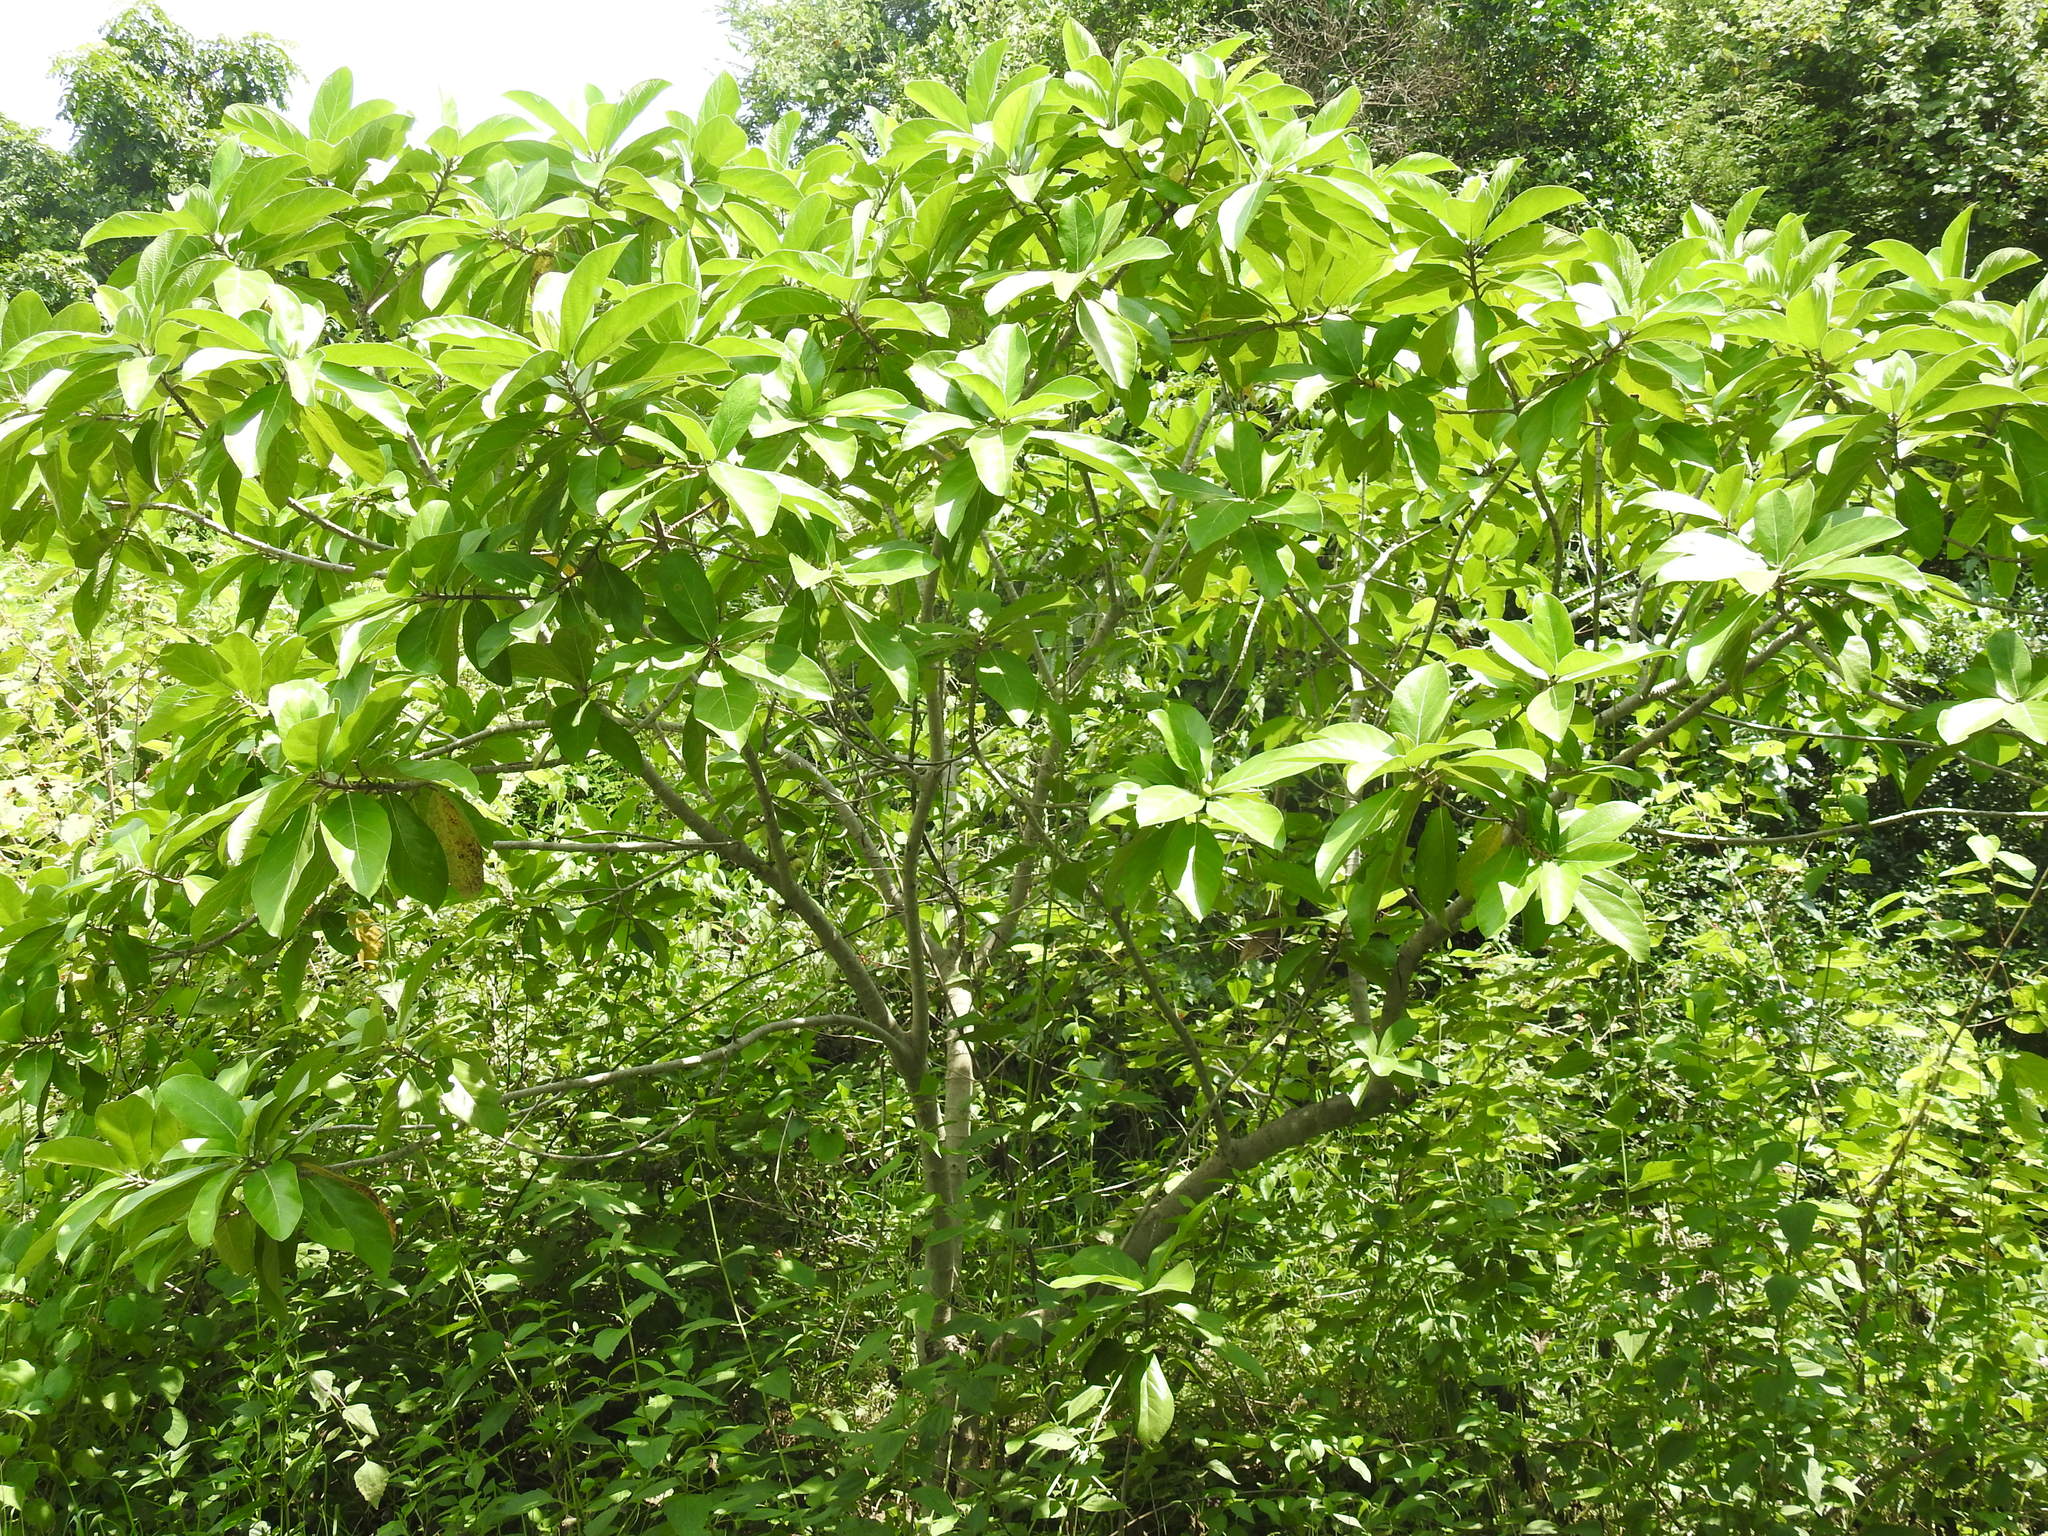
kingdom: Plantae
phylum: Tracheophyta
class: Magnoliopsida
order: Rosales
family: Moraceae
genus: Ficus
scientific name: Ficus hispida
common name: Hairy fig
